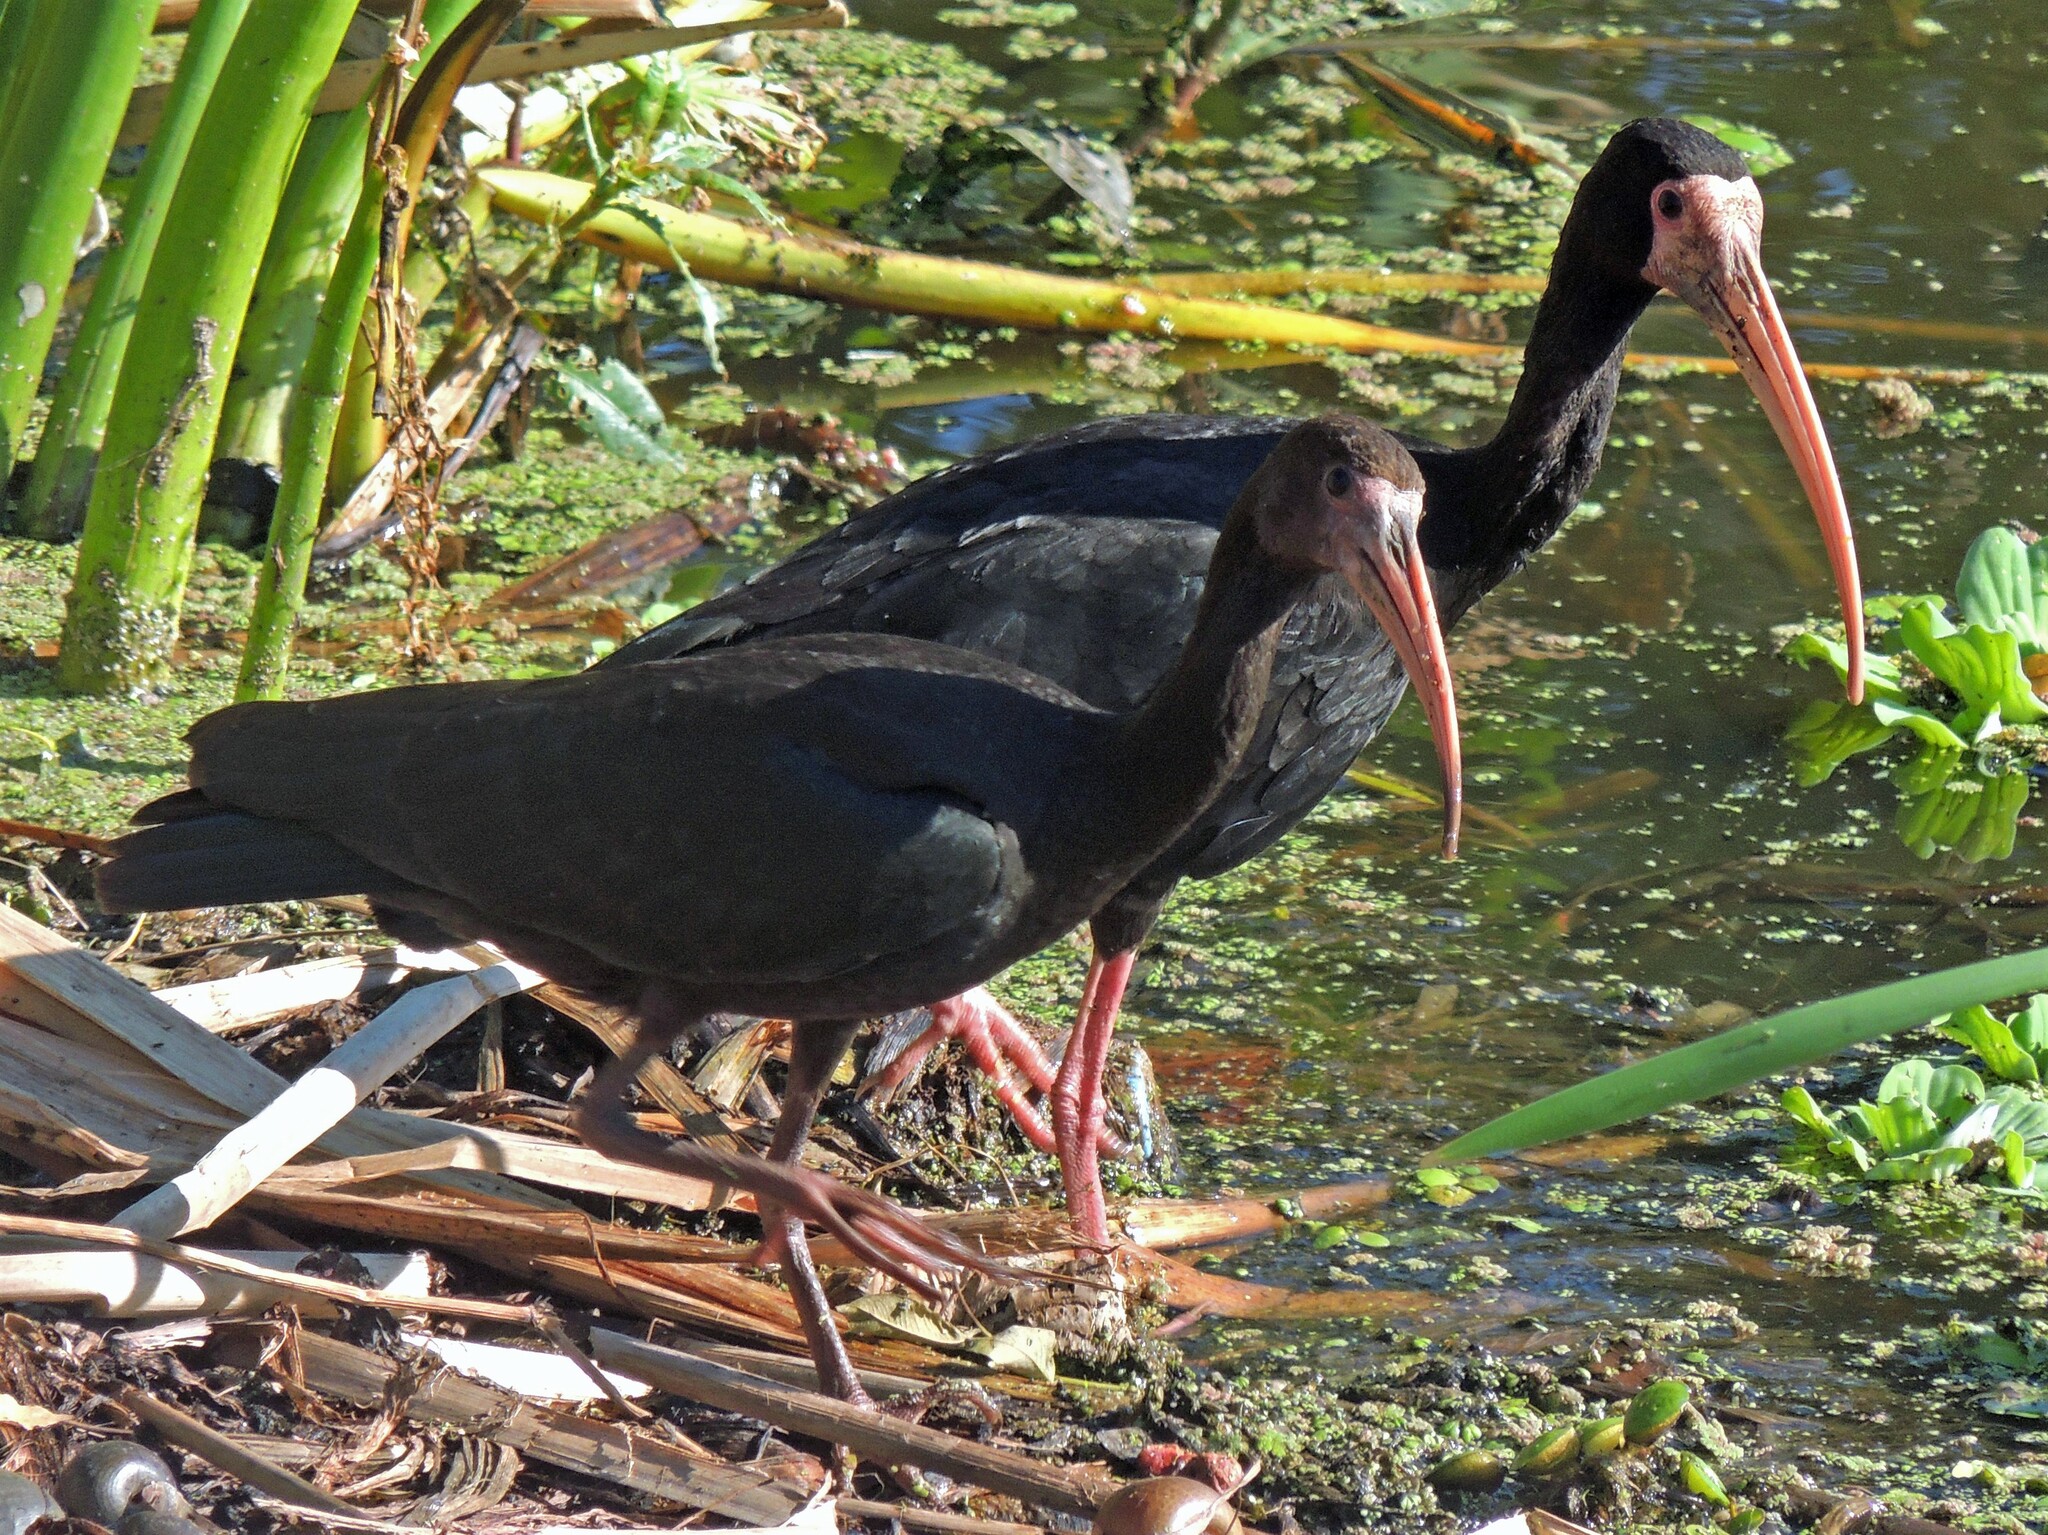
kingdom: Animalia
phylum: Chordata
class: Aves
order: Pelecaniformes
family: Threskiornithidae
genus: Phimosus
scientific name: Phimosus infuscatus
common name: Bare-faced ibis
